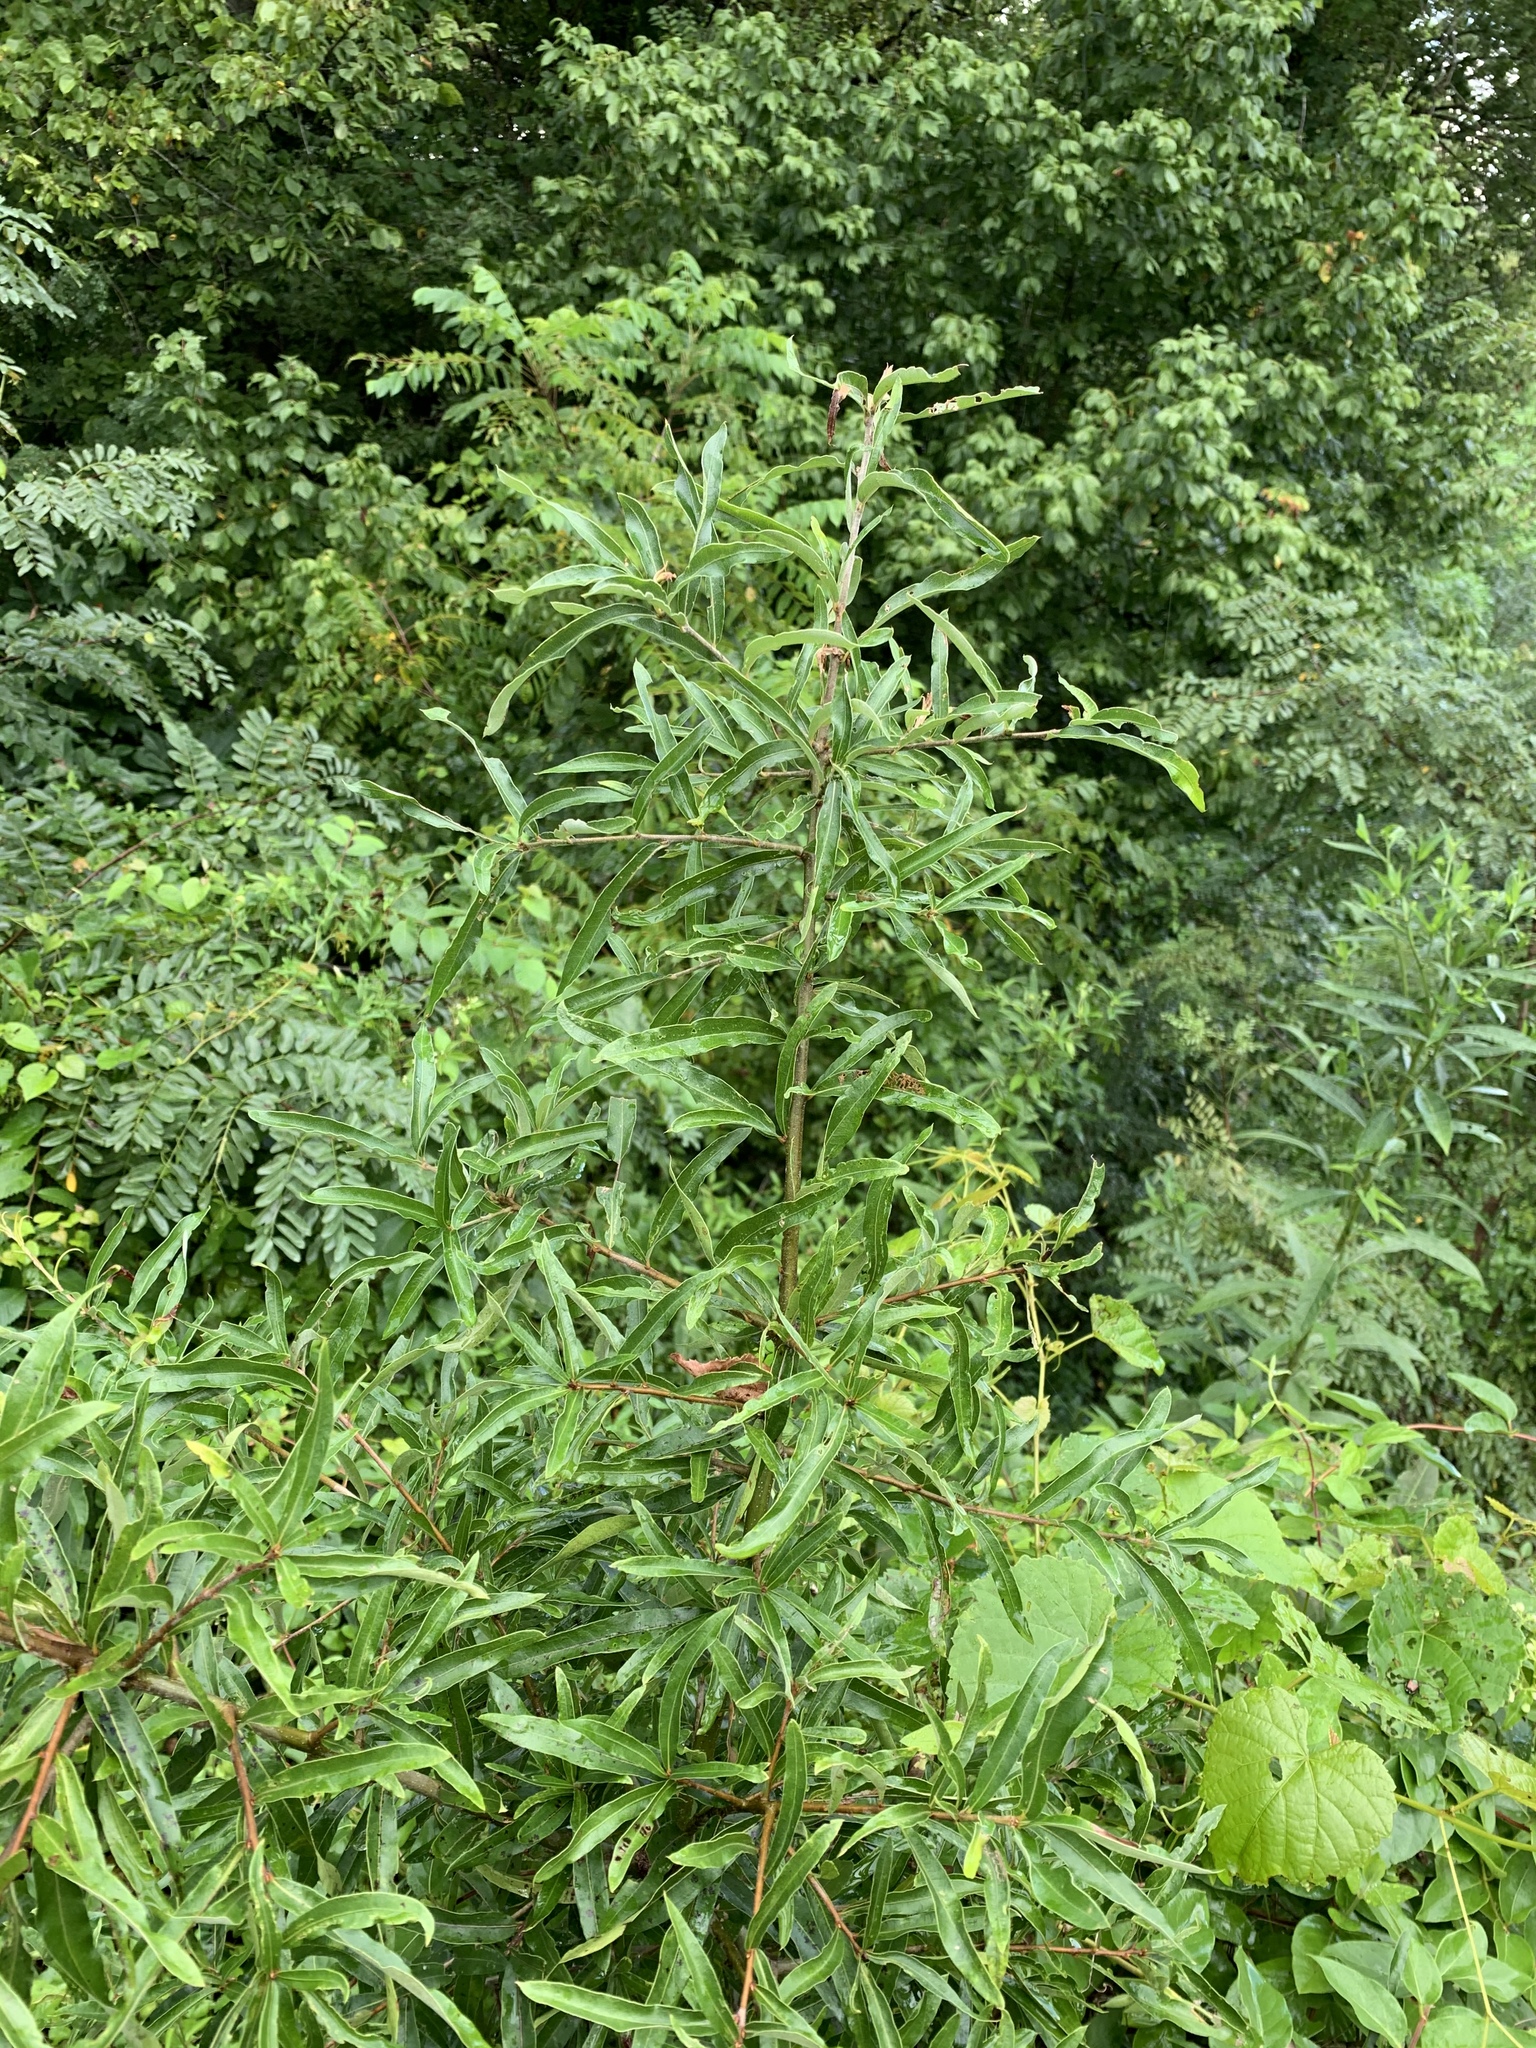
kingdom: Plantae
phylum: Tracheophyta
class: Magnoliopsida
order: Fagales
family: Fagaceae
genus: Quercus
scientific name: Quercus phellos
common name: Willow oak
